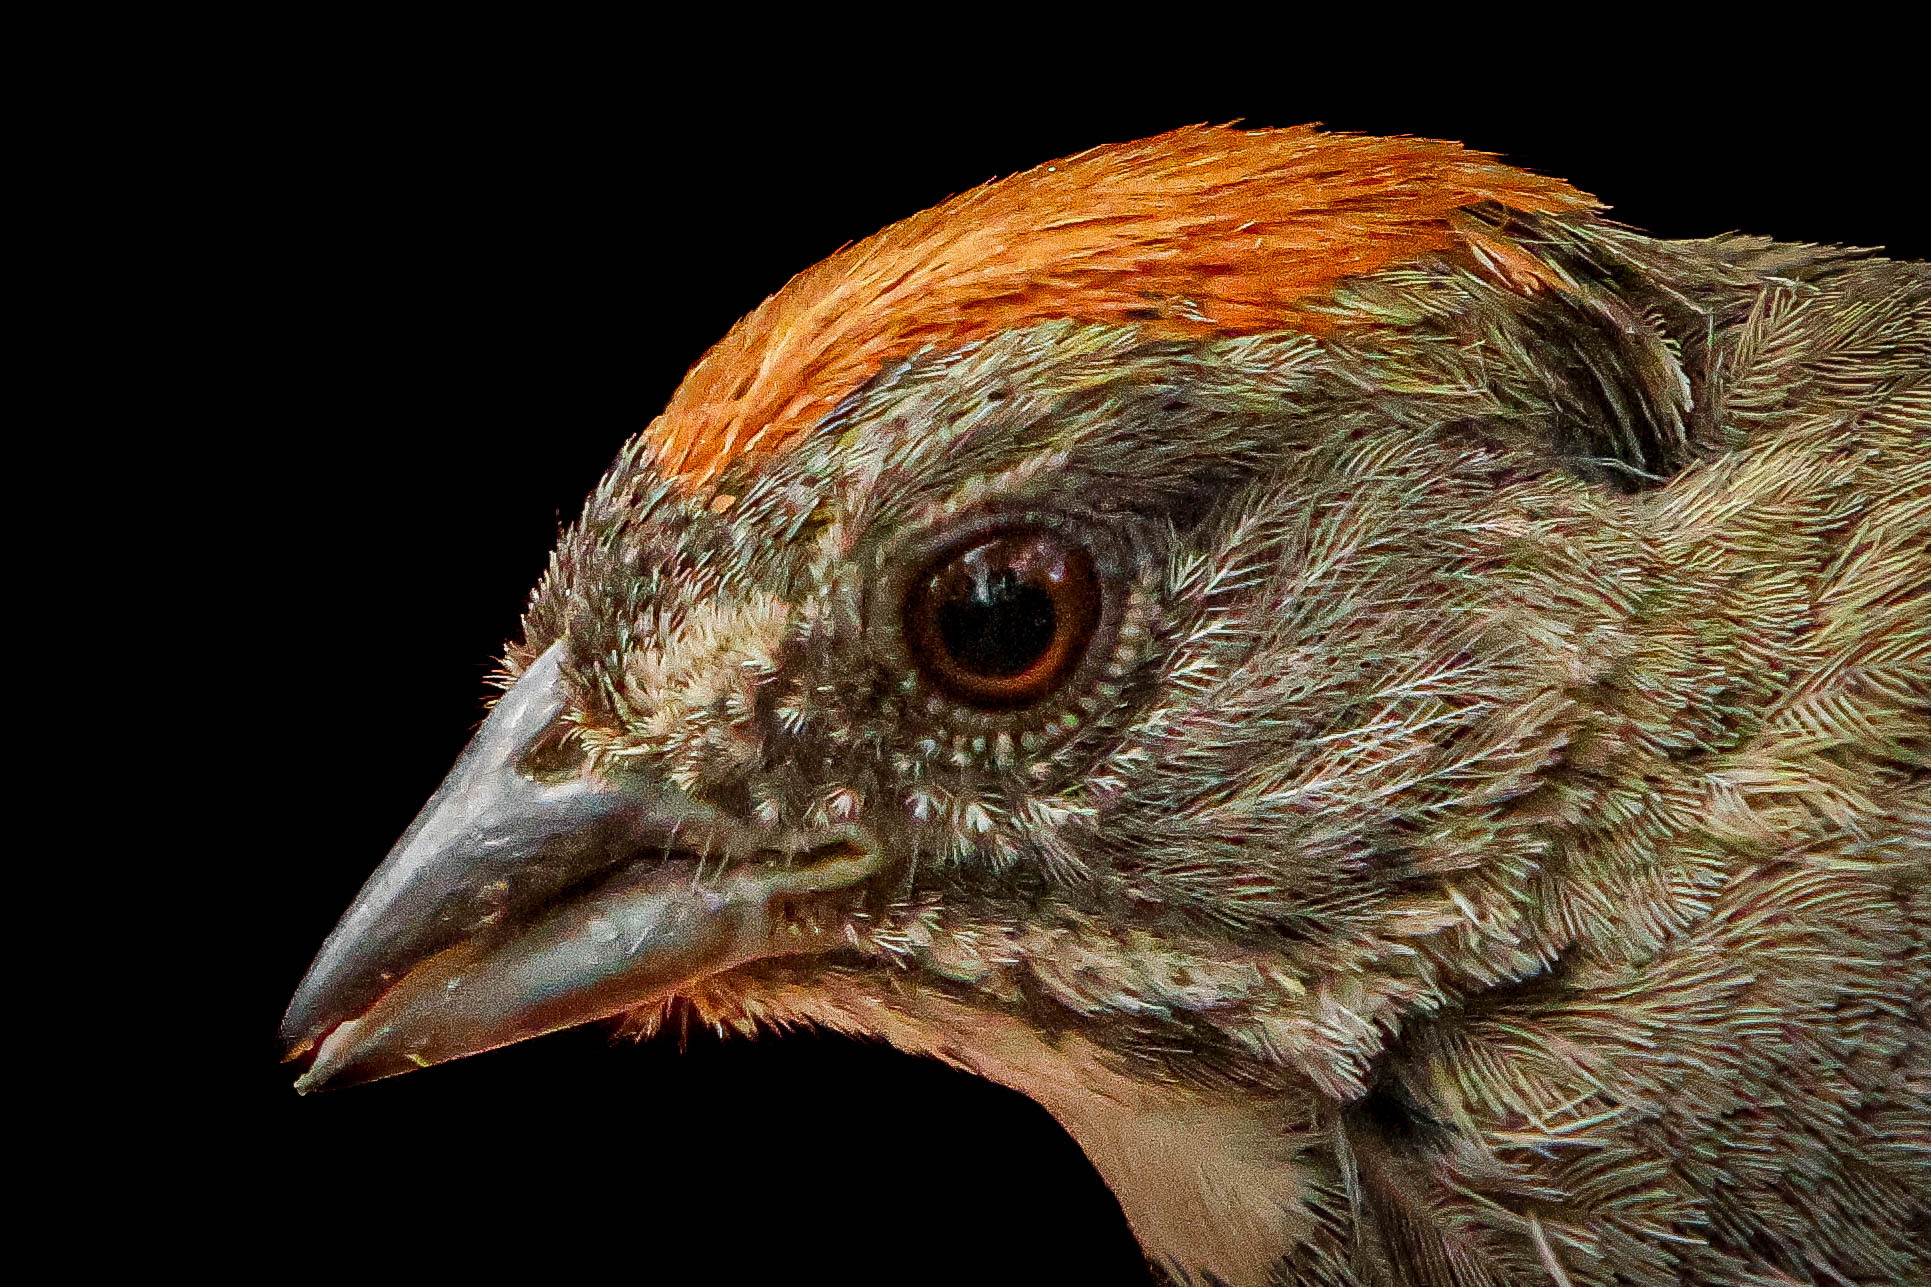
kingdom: Animalia
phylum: Chordata
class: Aves
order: Passeriformes
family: Passerellidae
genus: Pipilo
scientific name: Pipilo chlorurus
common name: Green-tailed towhee
